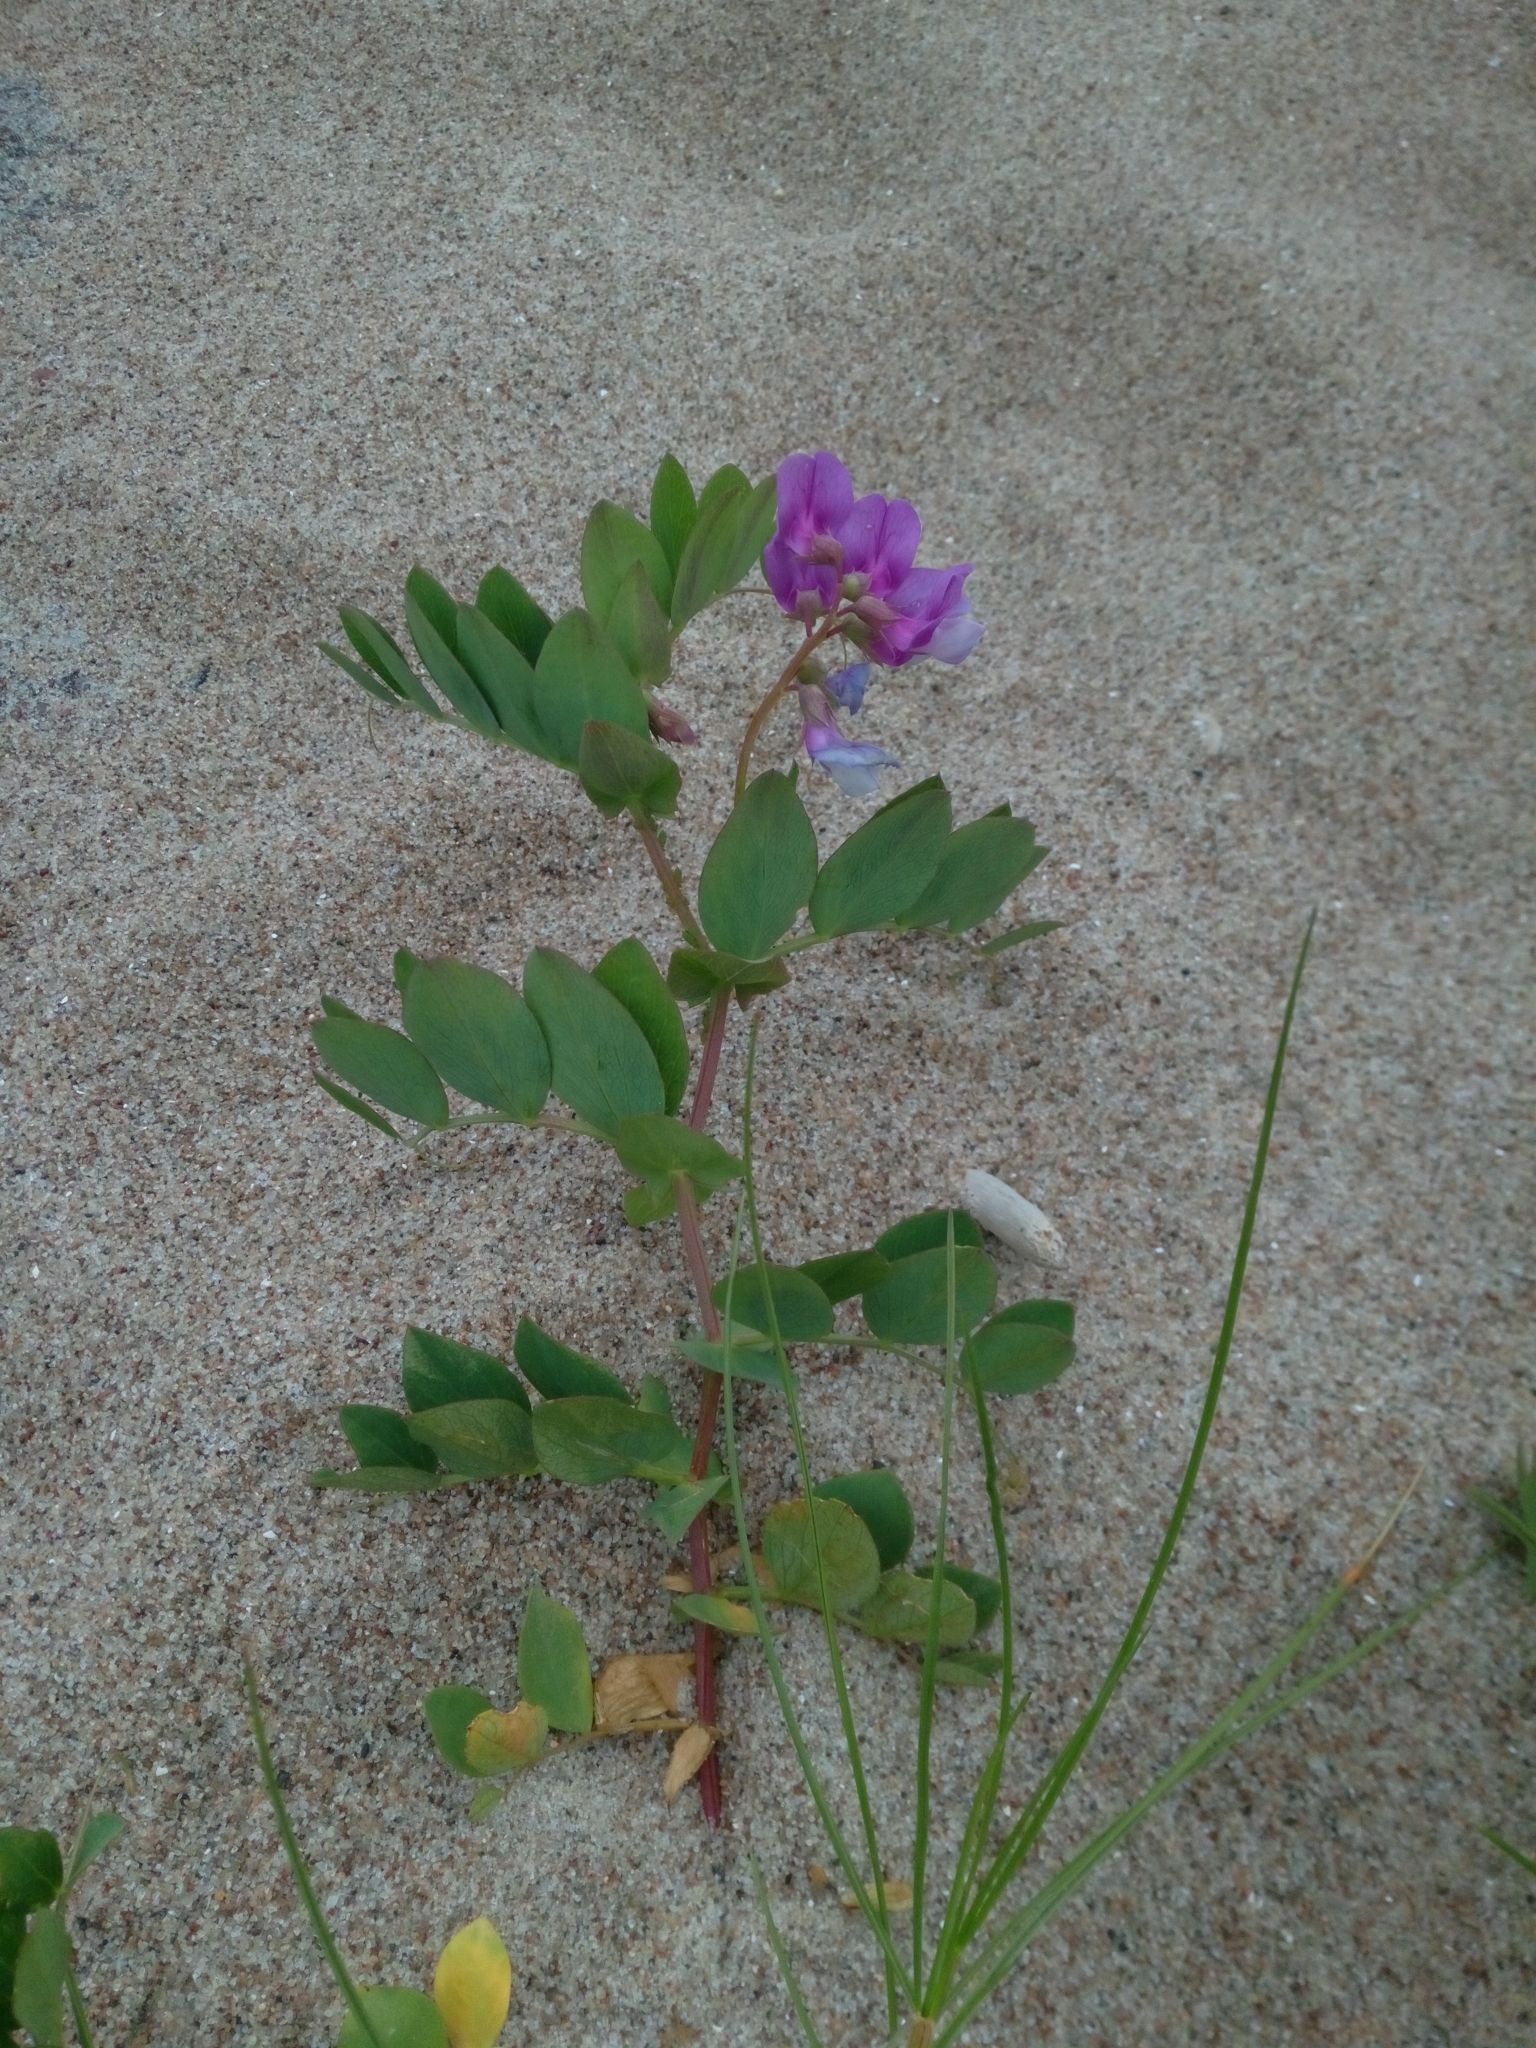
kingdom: Plantae
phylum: Tracheophyta
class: Magnoliopsida
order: Fabales
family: Fabaceae
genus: Lathyrus
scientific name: Lathyrus japonicus
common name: Sea pea
